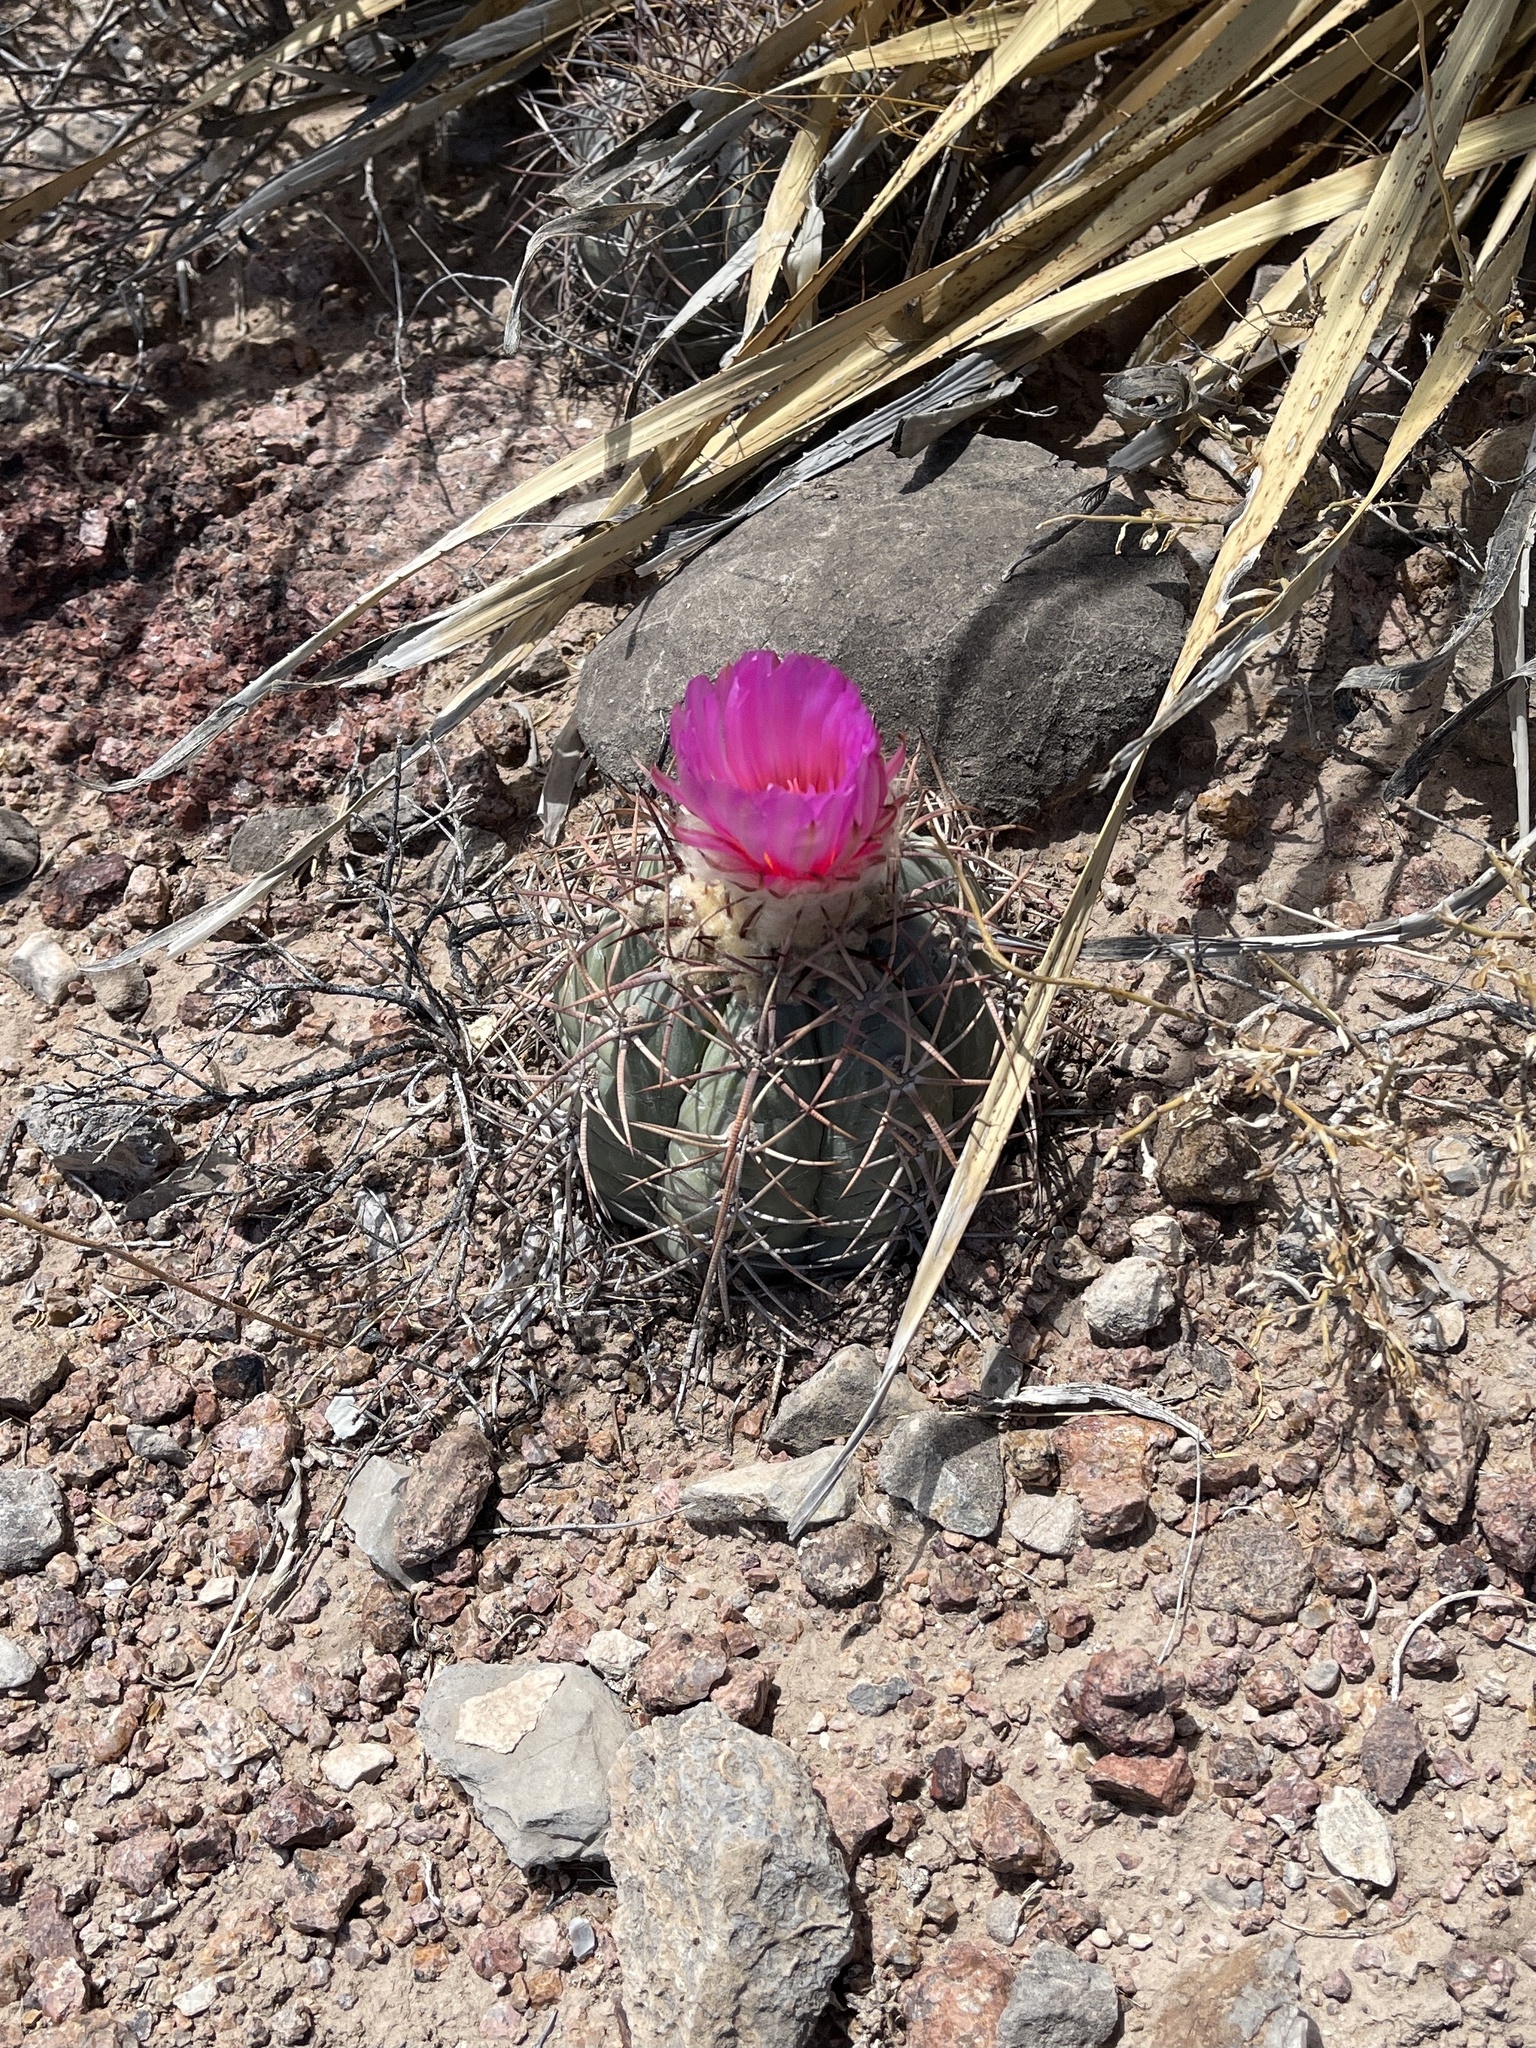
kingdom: Plantae
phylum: Tracheophyta
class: Magnoliopsida
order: Caryophyllales
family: Cactaceae
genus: Echinocactus
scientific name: Echinocactus horizonthalonius
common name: Devilshead
